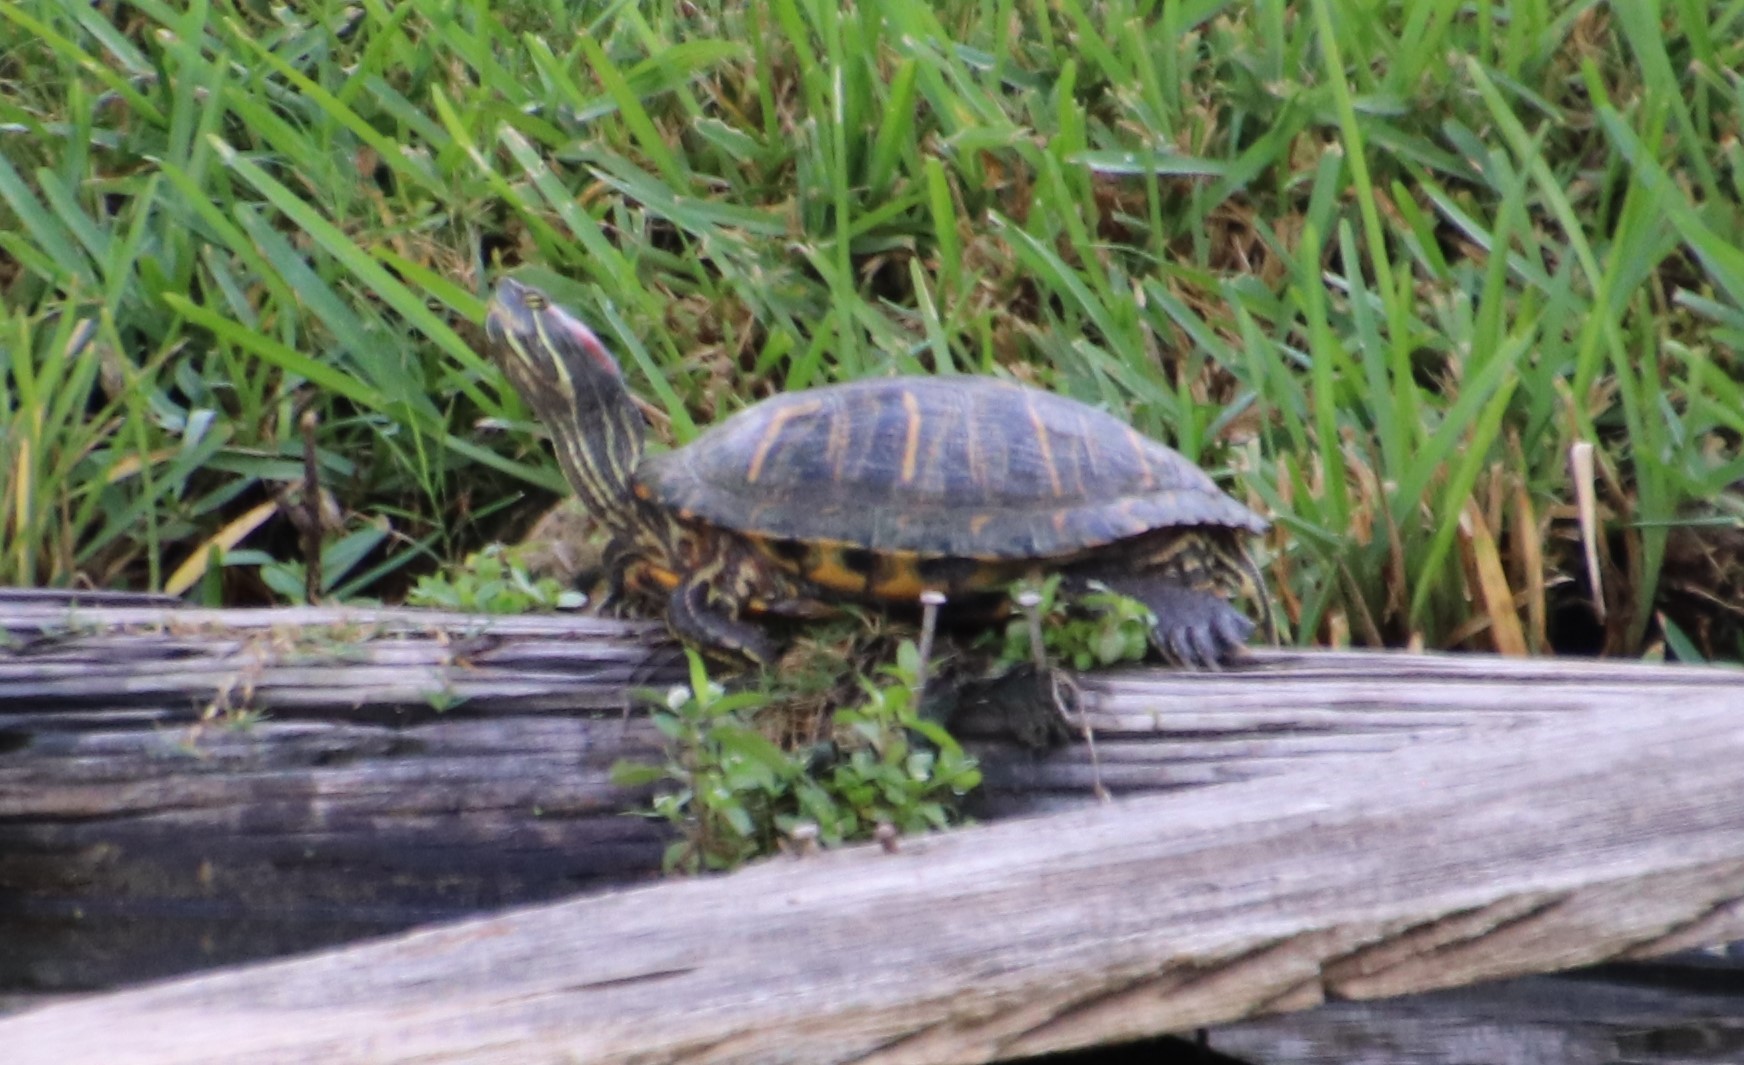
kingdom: Animalia
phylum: Chordata
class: Testudines
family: Emydidae
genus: Trachemys
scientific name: Trachemys scripta
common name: Slider
